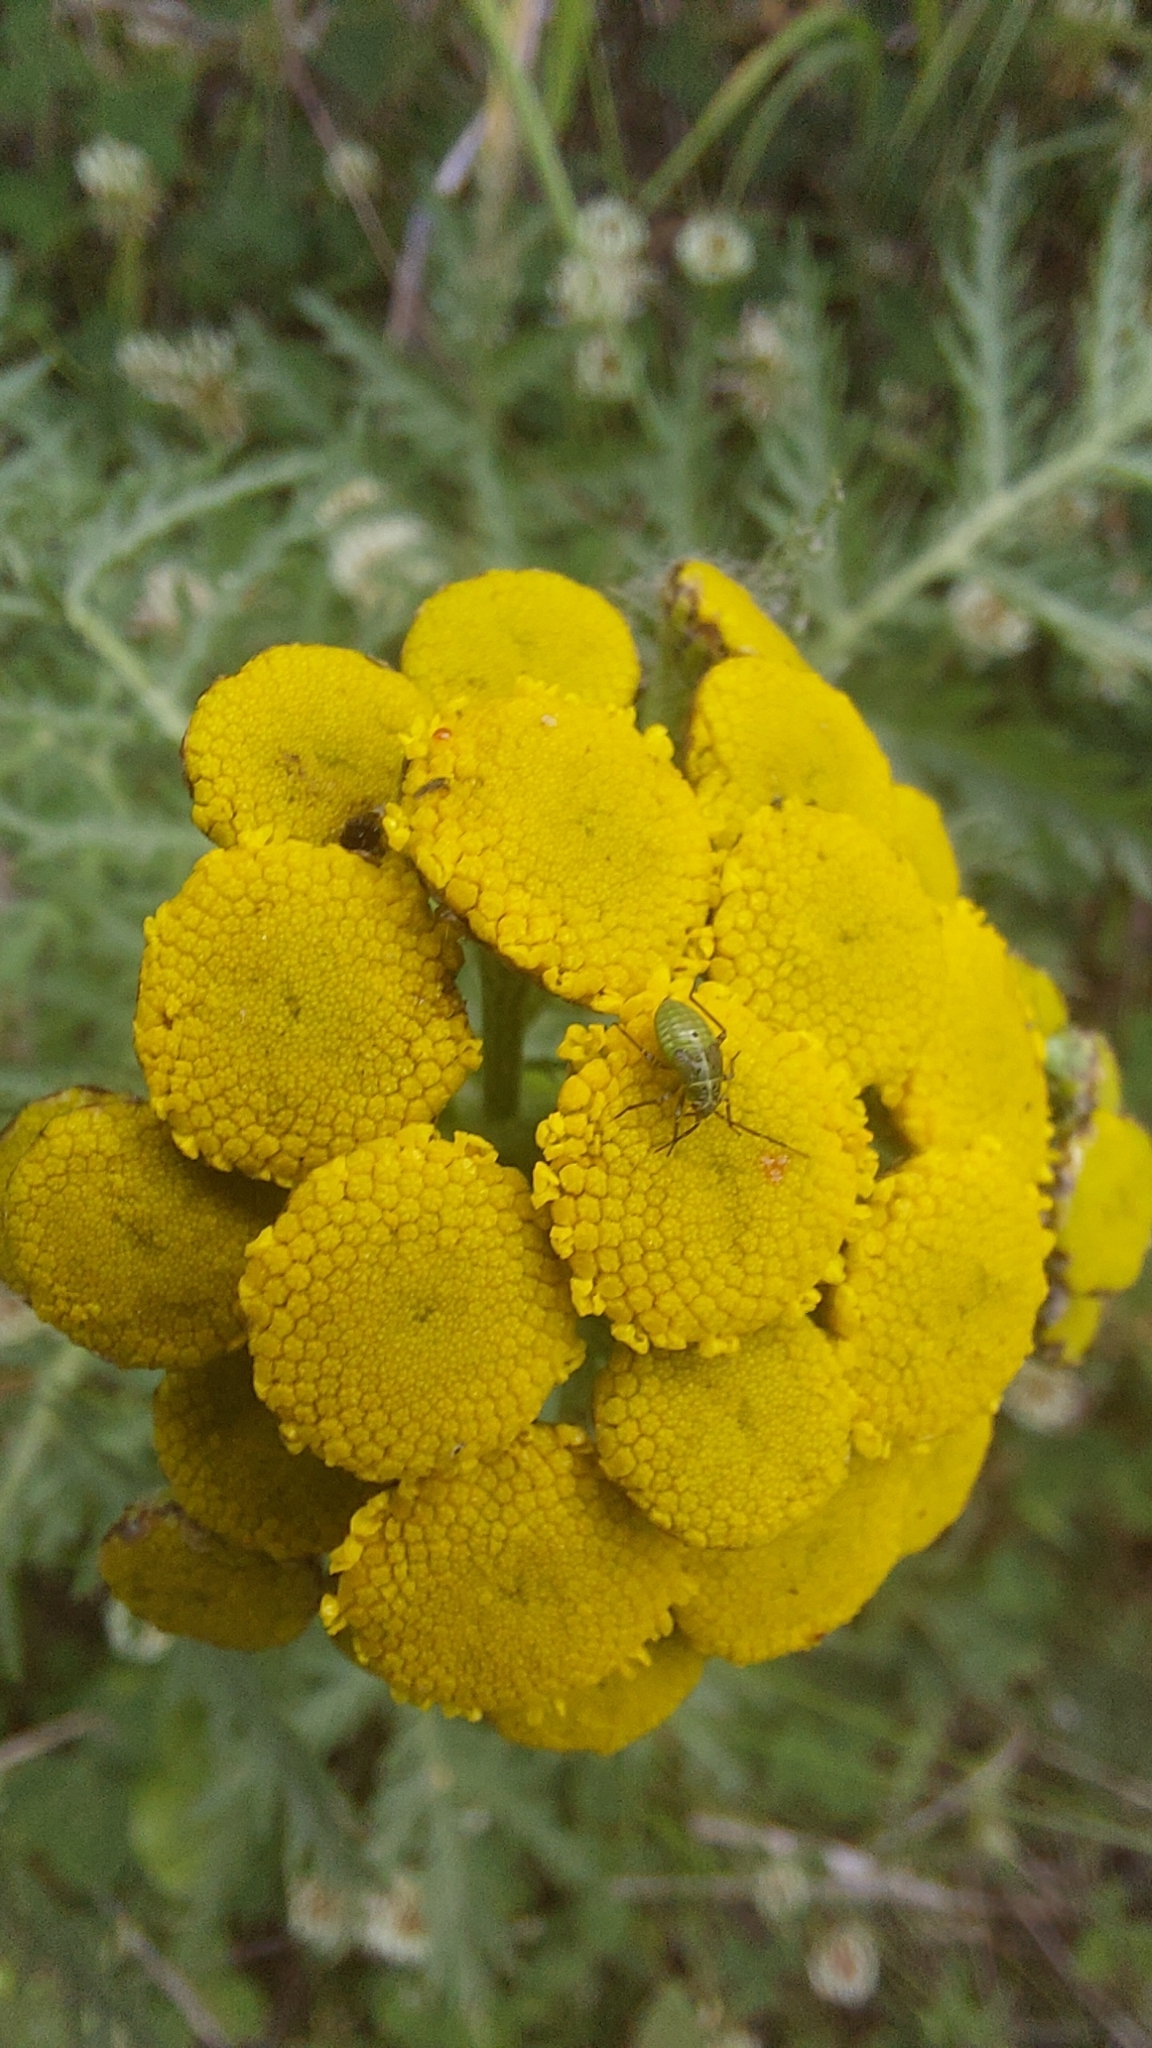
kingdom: Plantae
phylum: Tracheophyta
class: Magnoliopsida
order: Asterales
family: Asteraceae
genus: Tanacetum
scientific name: Tanacetum vulgare
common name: Common tansy
